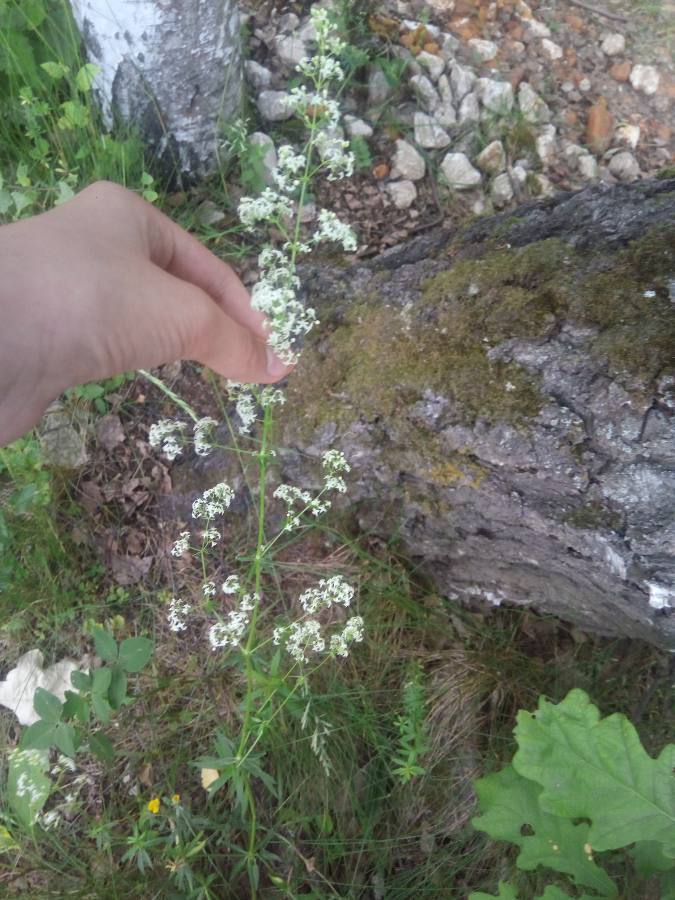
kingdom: Plantae
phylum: Tracheophyta
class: Magnoliopsida
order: Gentianales
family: Rubiaceae
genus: Galium
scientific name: Galium mollugo
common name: Hedge bedstraw
